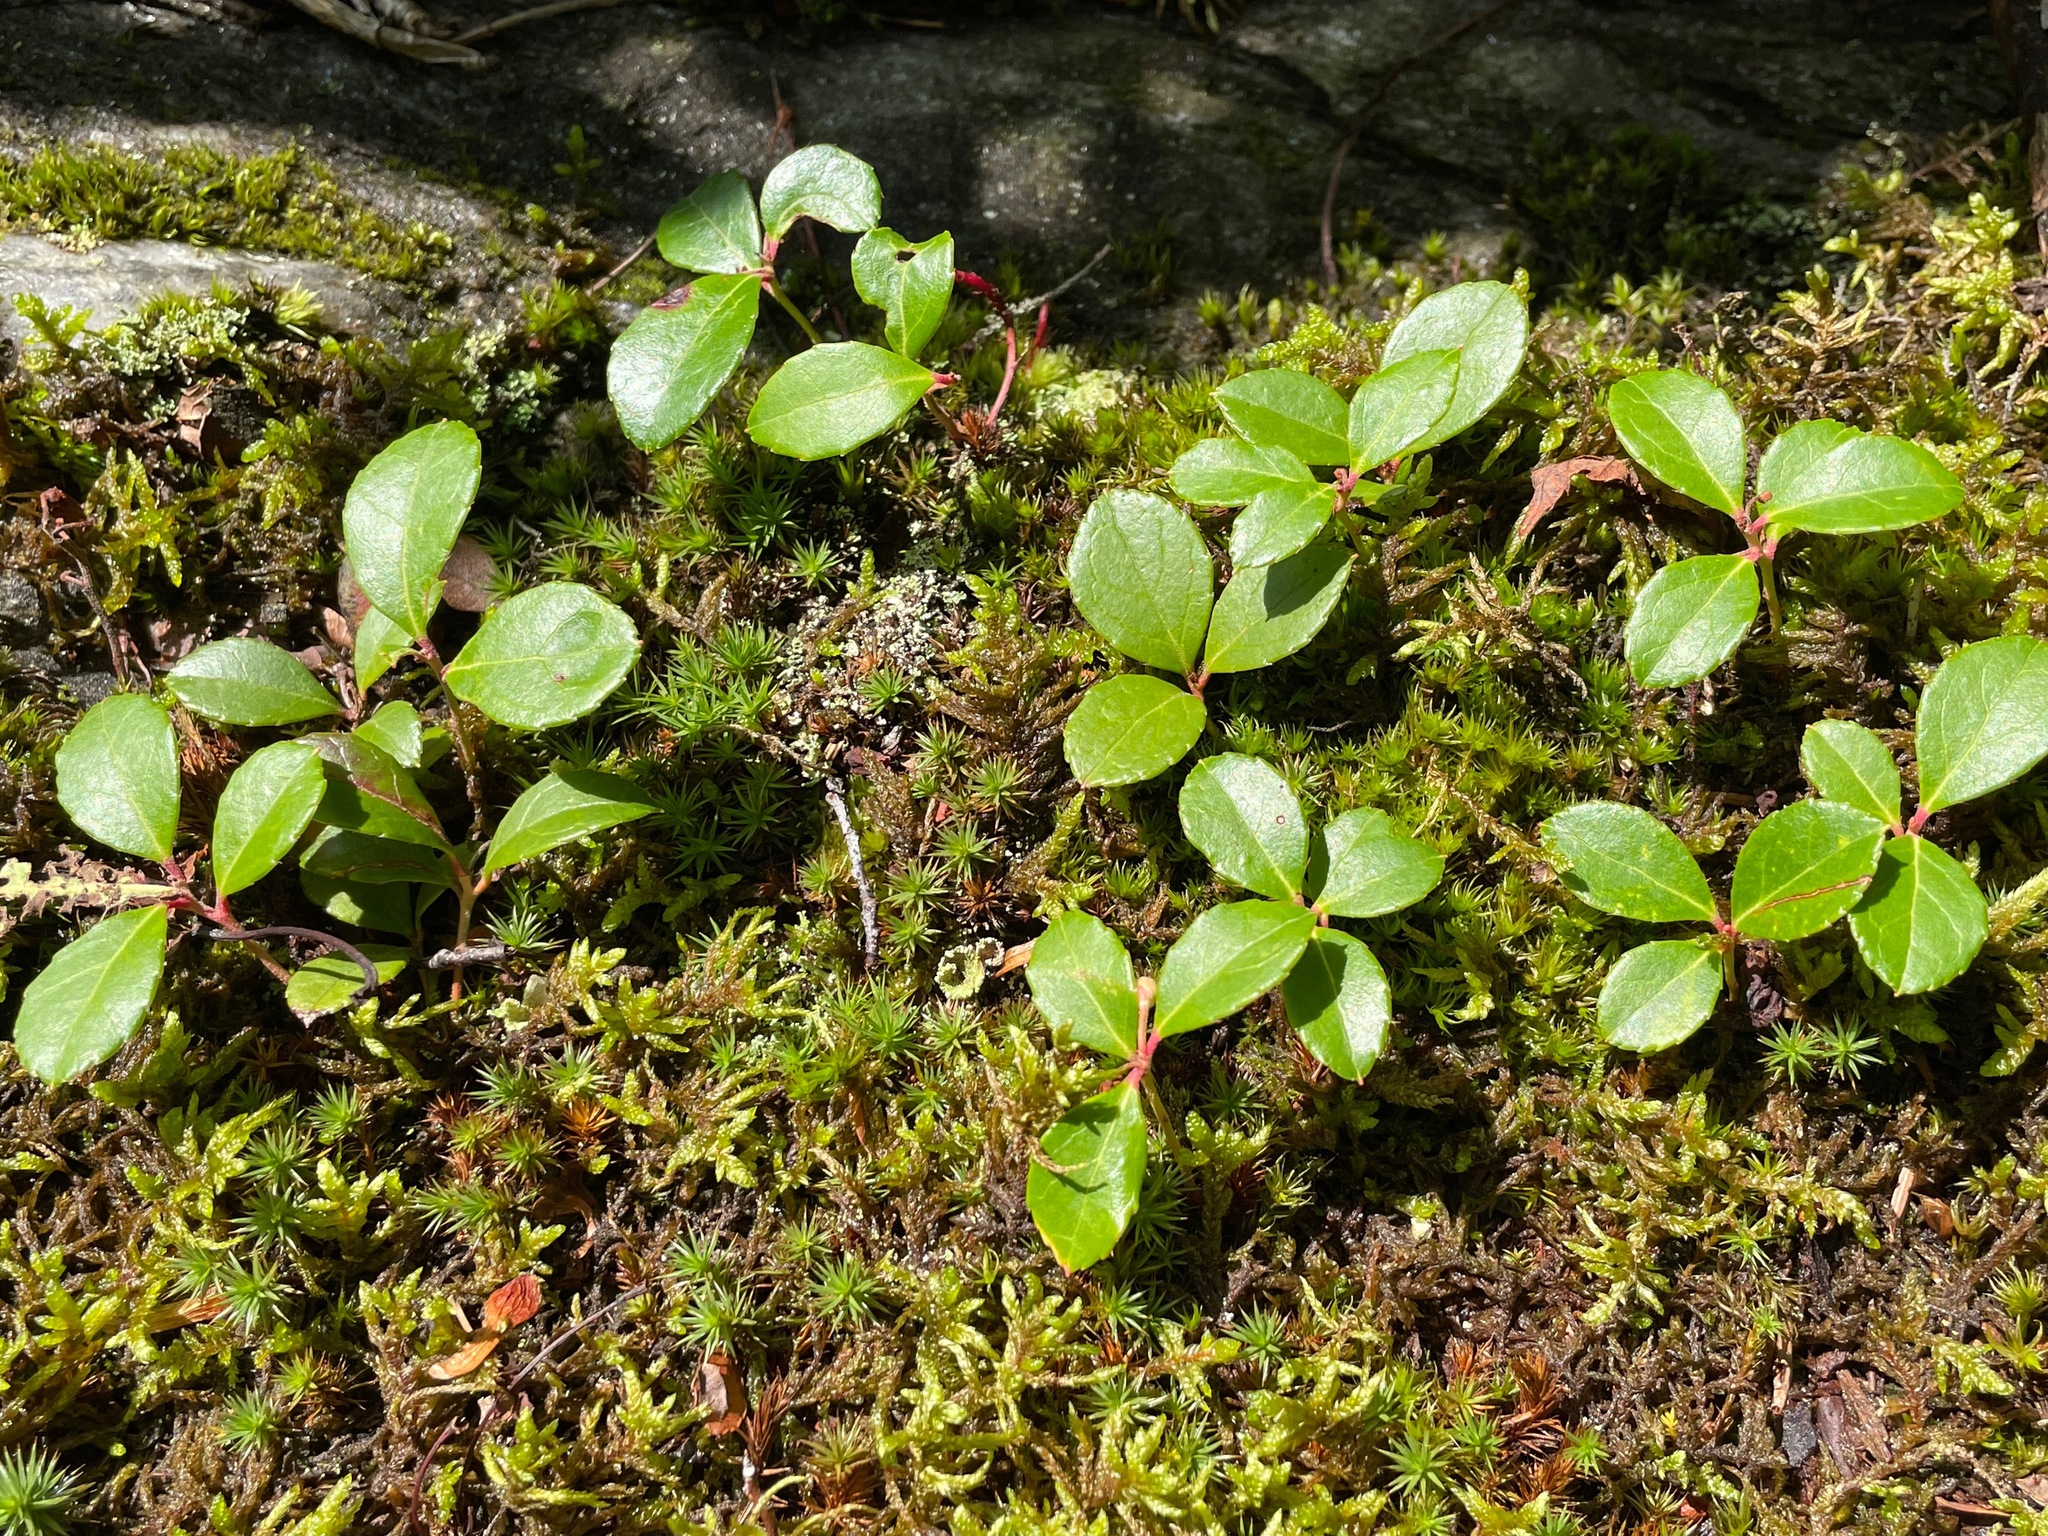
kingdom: Plantae
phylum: Tracheophyta
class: Magnoliopsida
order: Ericales
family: Ericaceae
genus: Gaultheria
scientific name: Gaultheria procumbens
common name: Checkerberry
